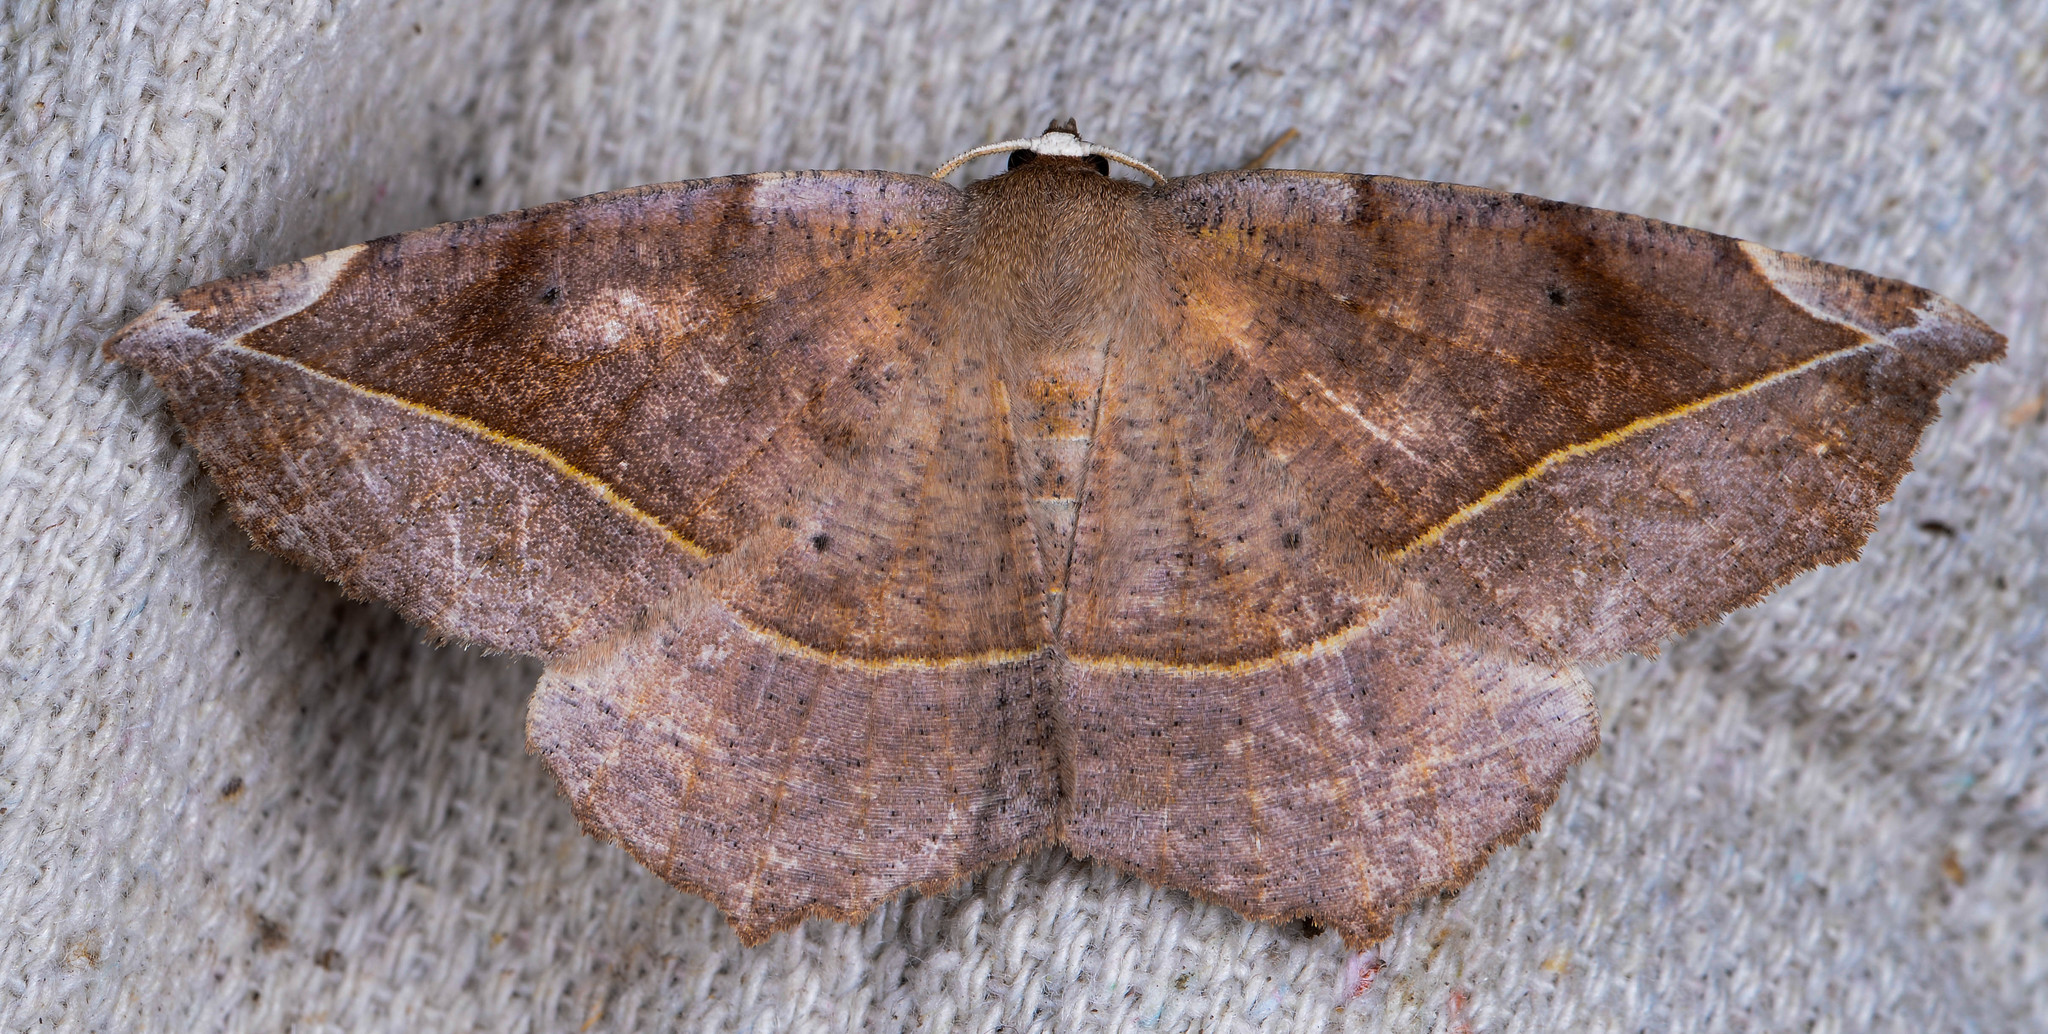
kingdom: Animalia
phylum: Arthropoda
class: Insecta
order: Lepidoptera
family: Geometridae
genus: Eutrapela
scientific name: Eutrapela clemataria
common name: Curved-toothed geometer
